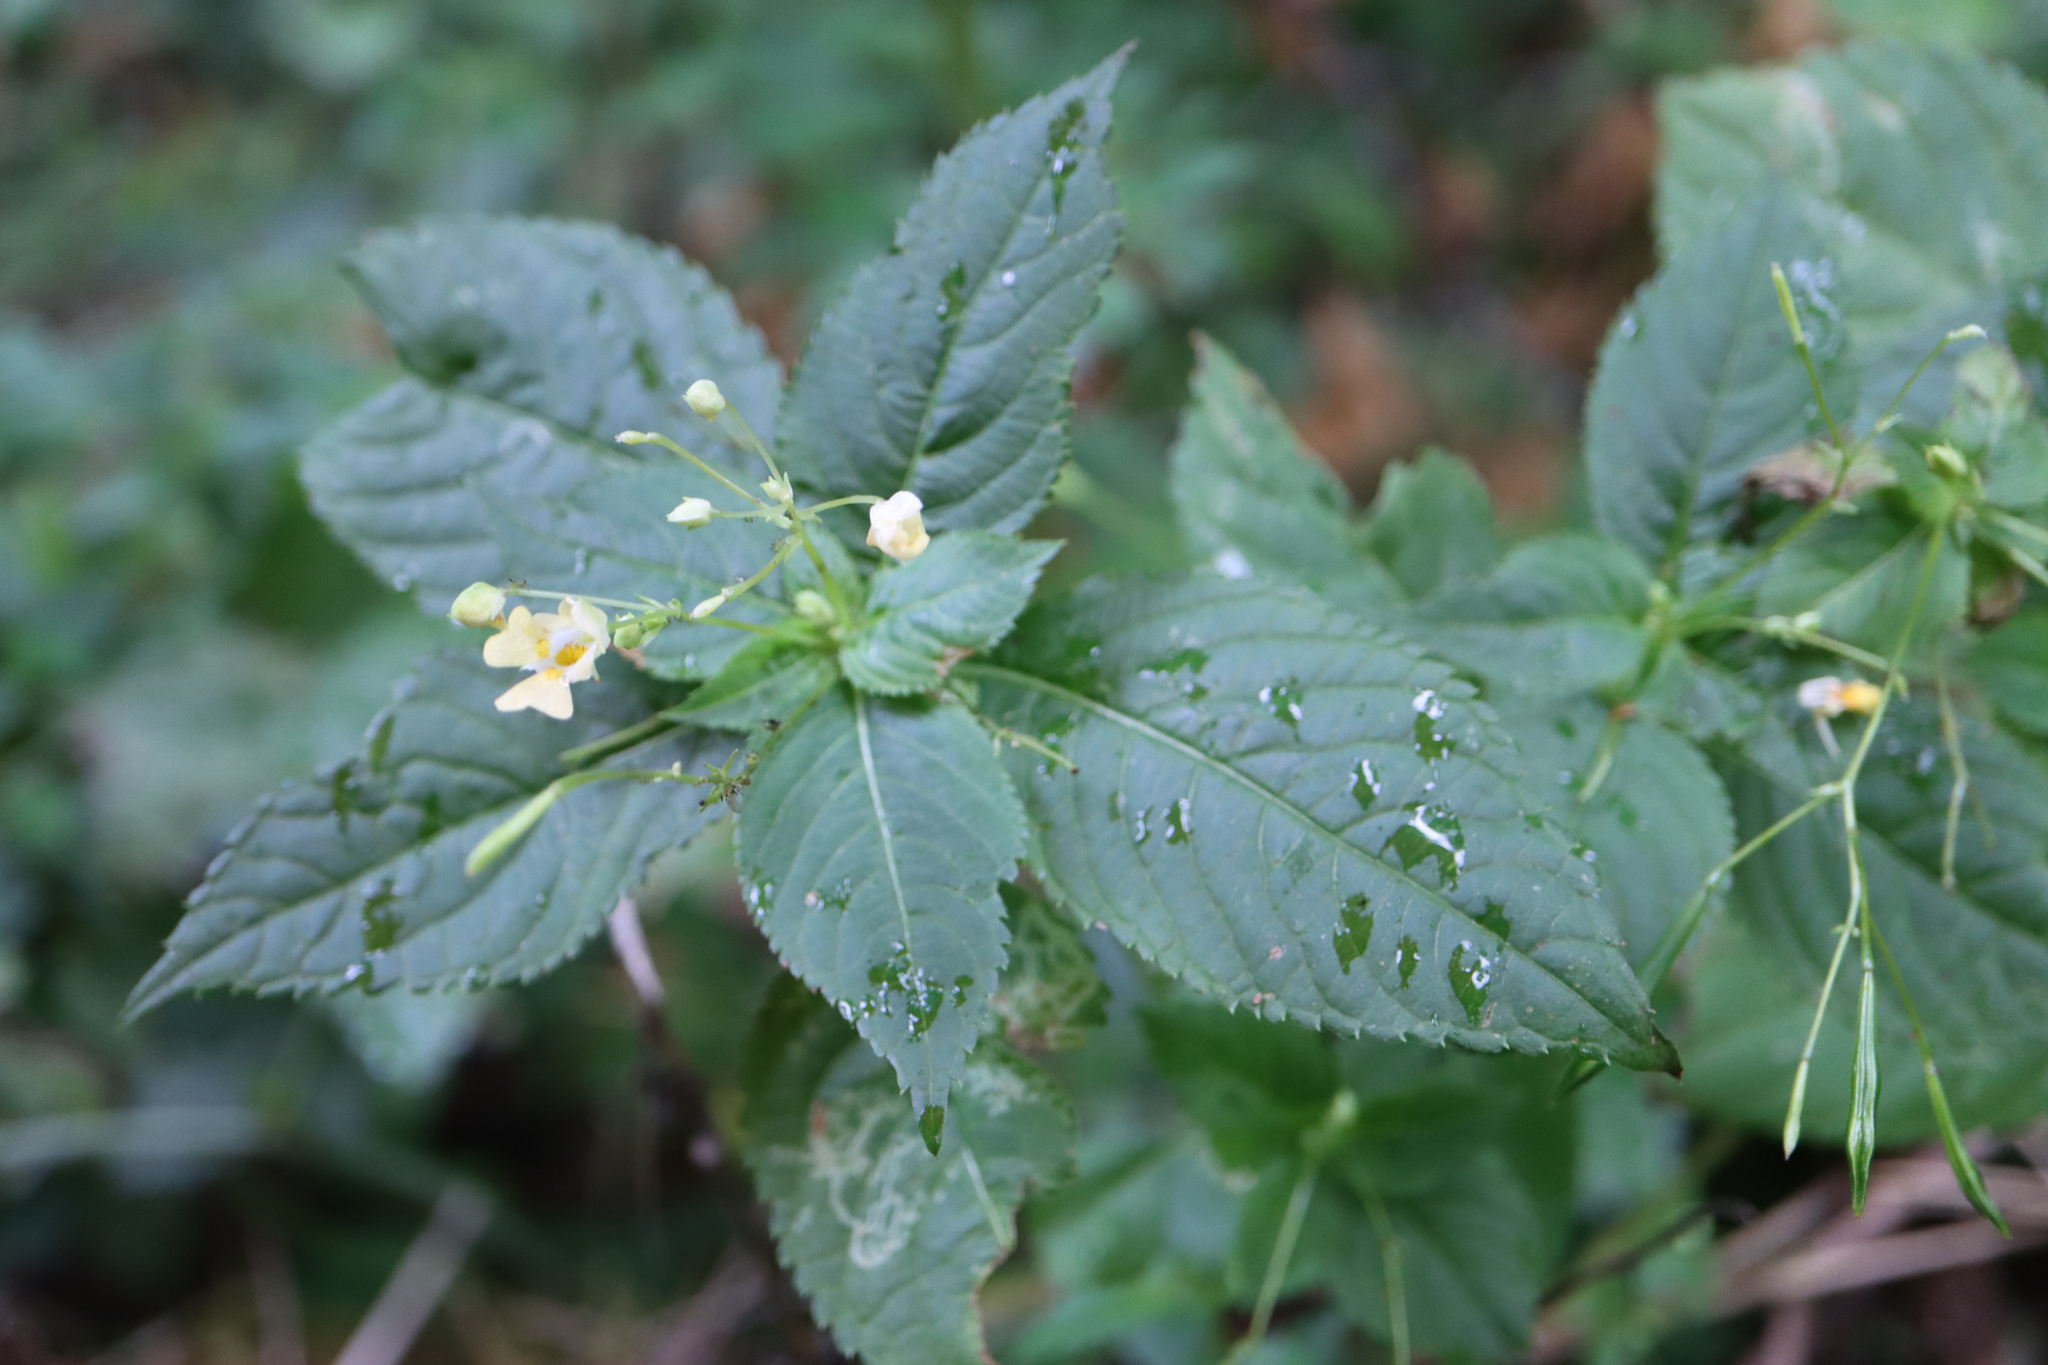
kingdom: Plantae
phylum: Tracheophyta
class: Magnoliopsida
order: Ericales
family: Balsaminaceae
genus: Impatiens
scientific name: Impatiens parviflora
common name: Small balsam
